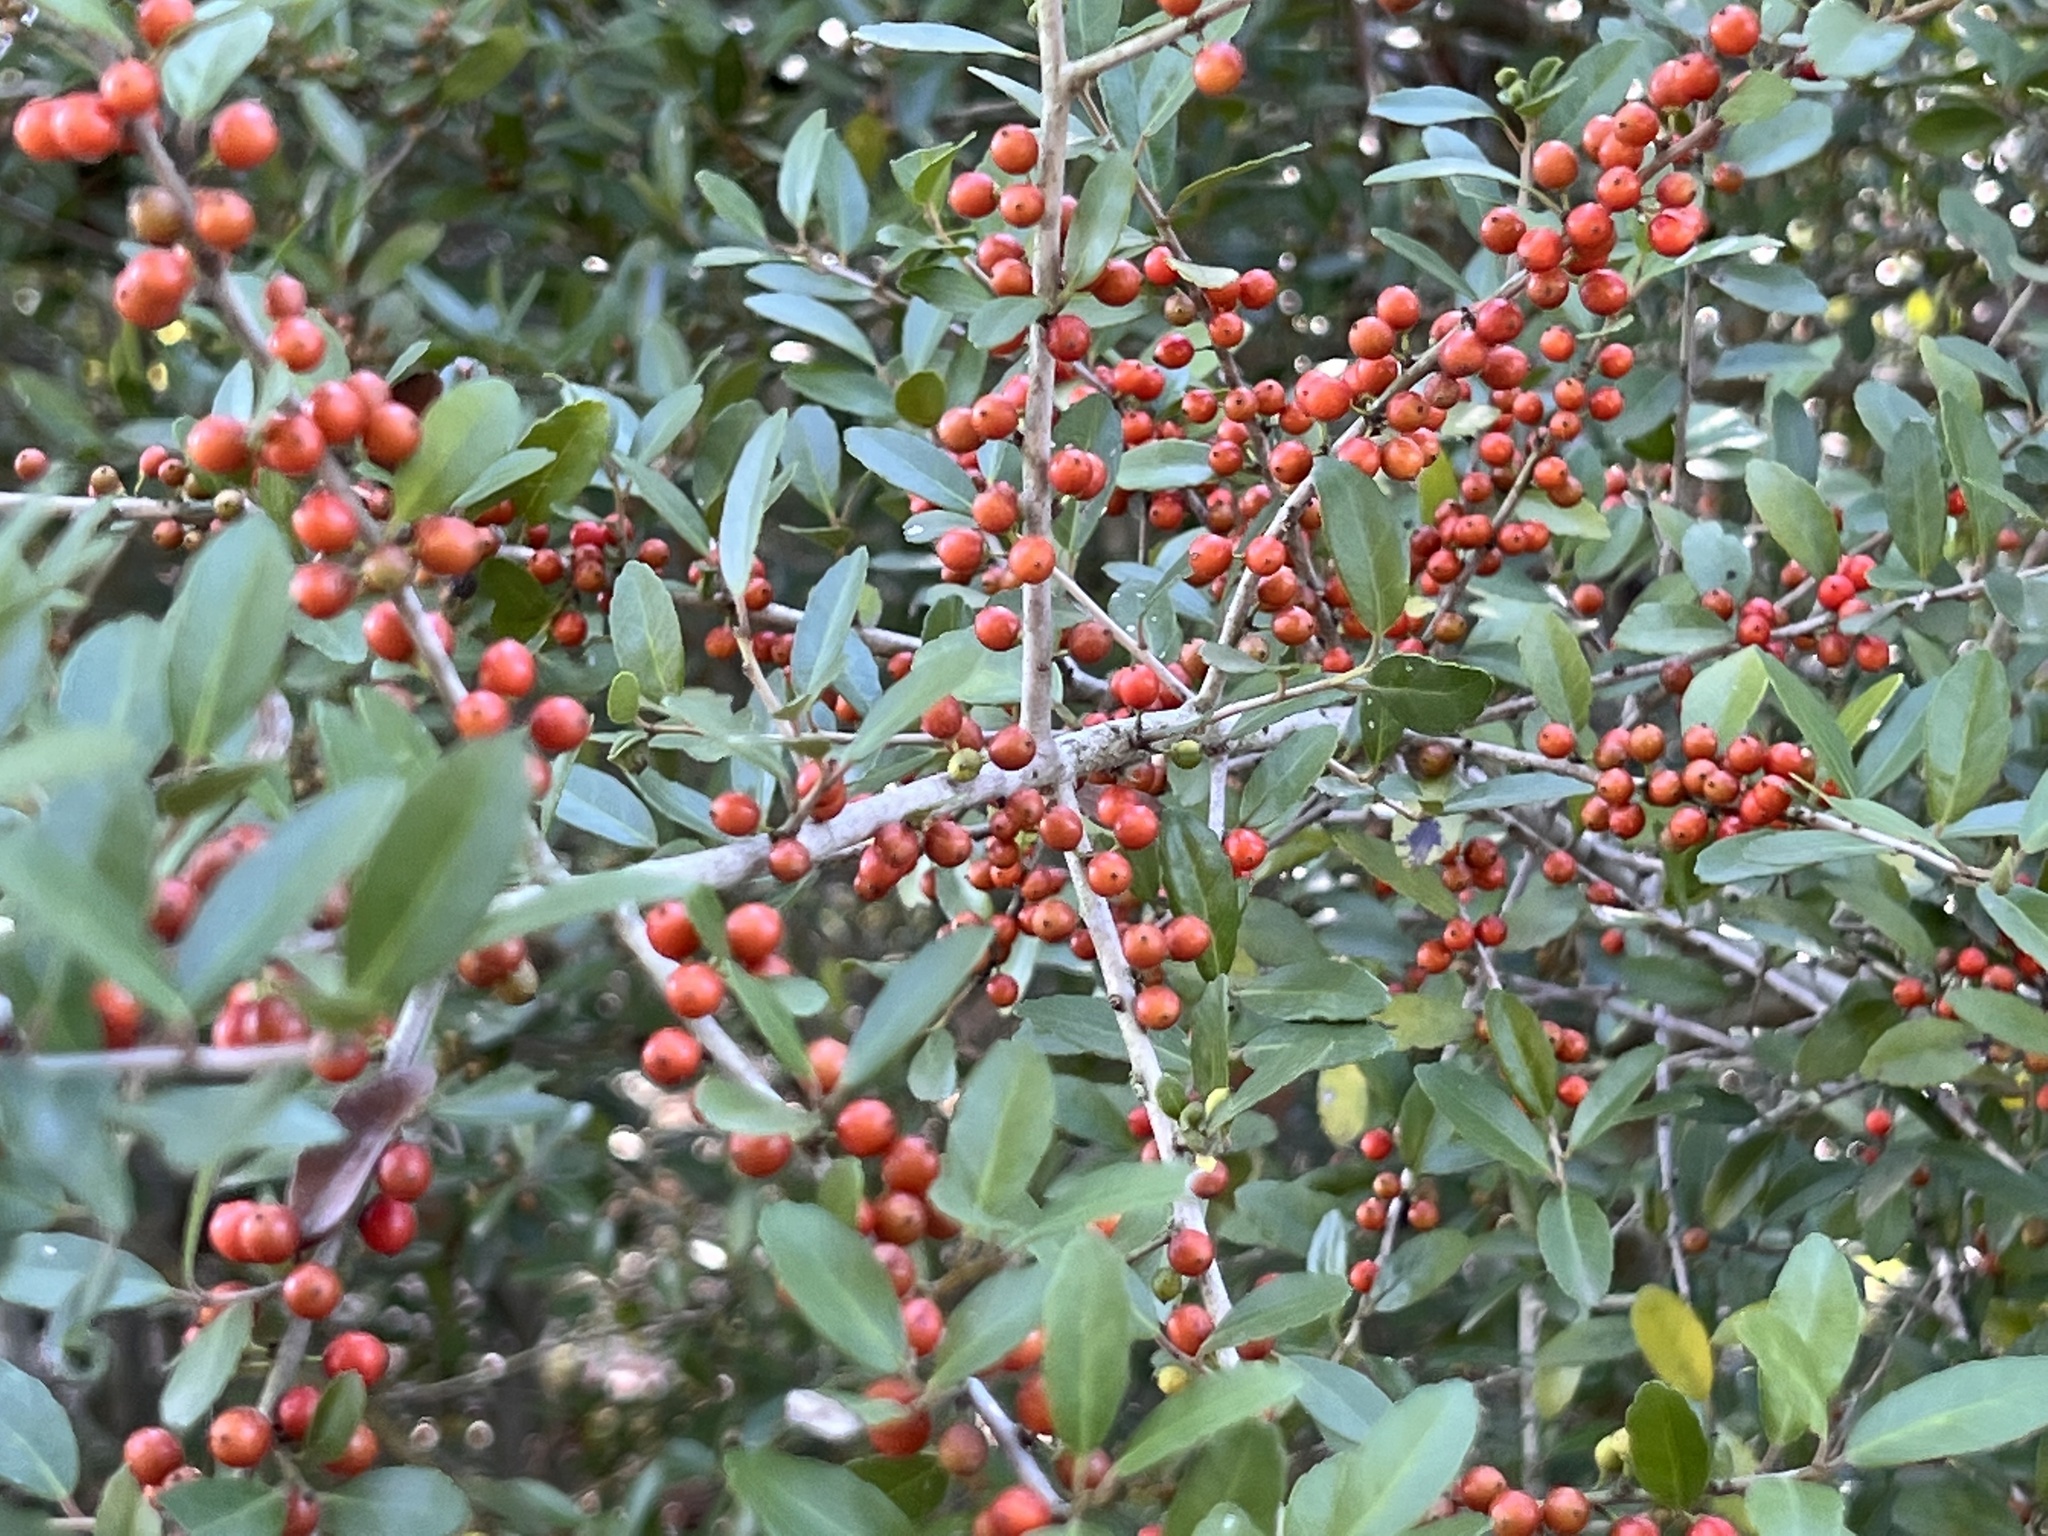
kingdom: Plantae
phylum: Tracheophyta
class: Magnoliopsida
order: Aquifoliales
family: Aquifoliaceae
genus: Ilex
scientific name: Ilex vomitoria
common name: Yaupon holly
